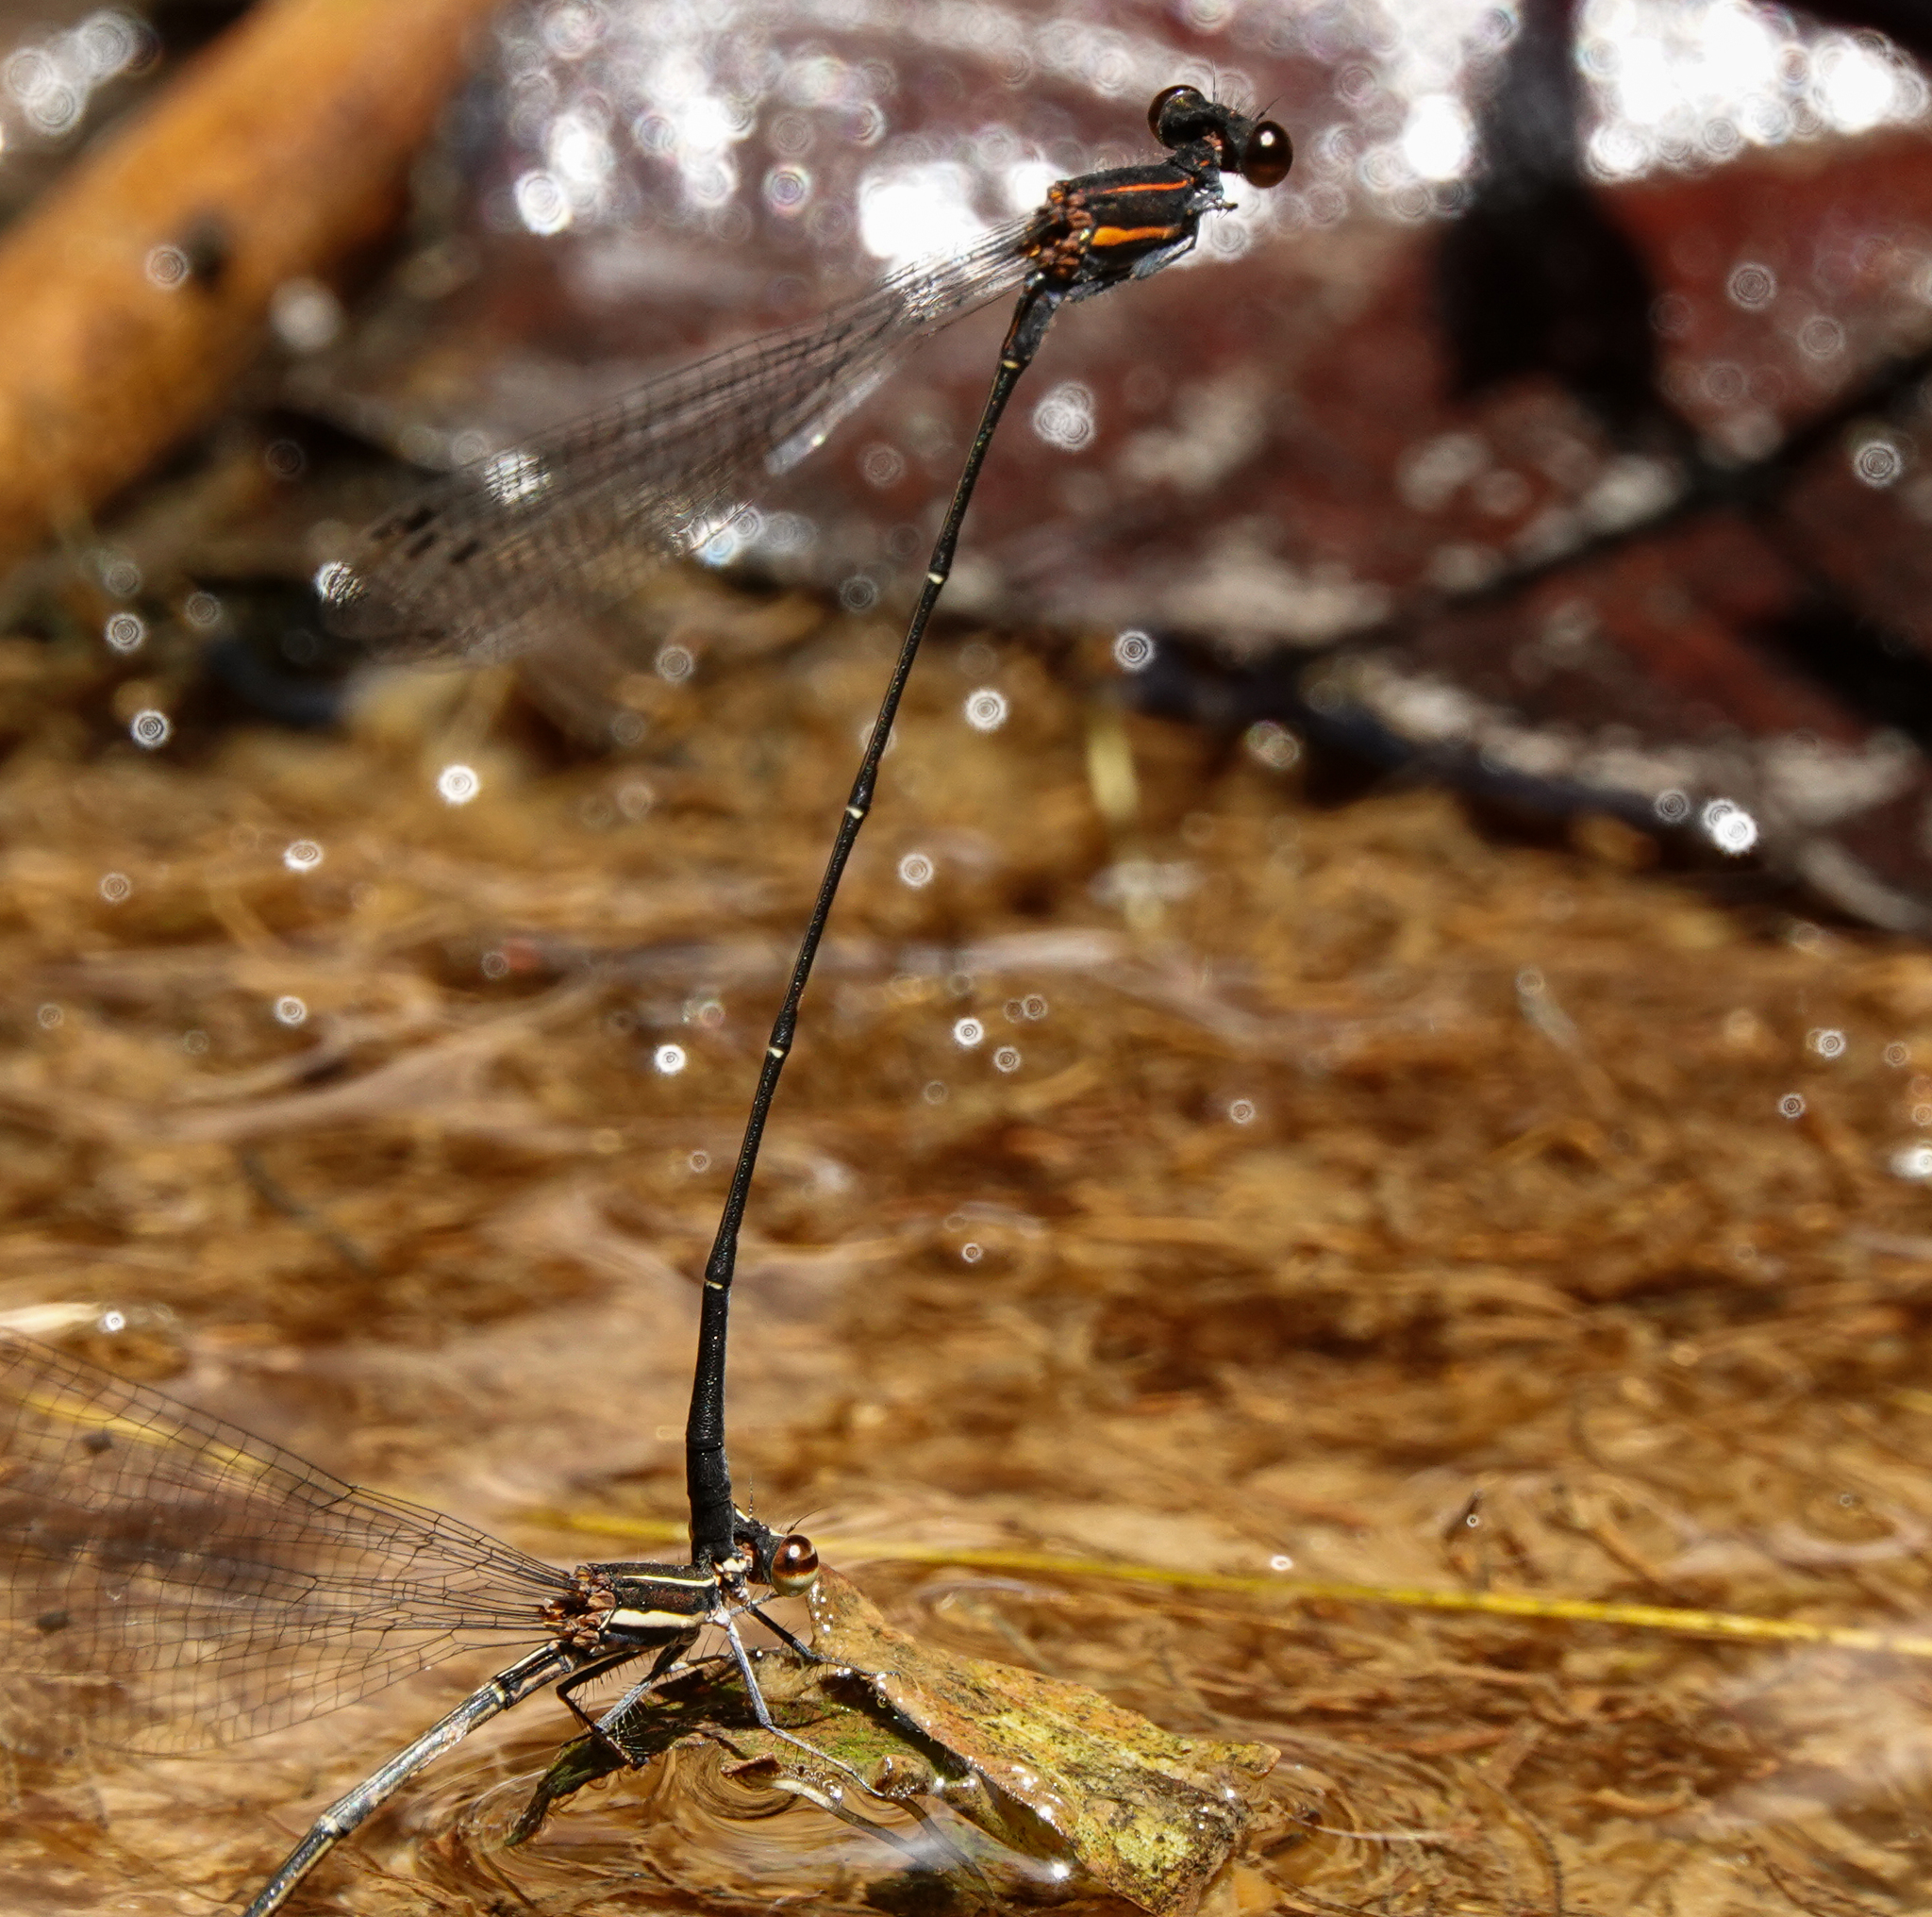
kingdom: Animalia
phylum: Arthropoda
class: Insecta
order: Odonata
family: Platycnemididae
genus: Prodasineura
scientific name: Prodasineura verticalis
